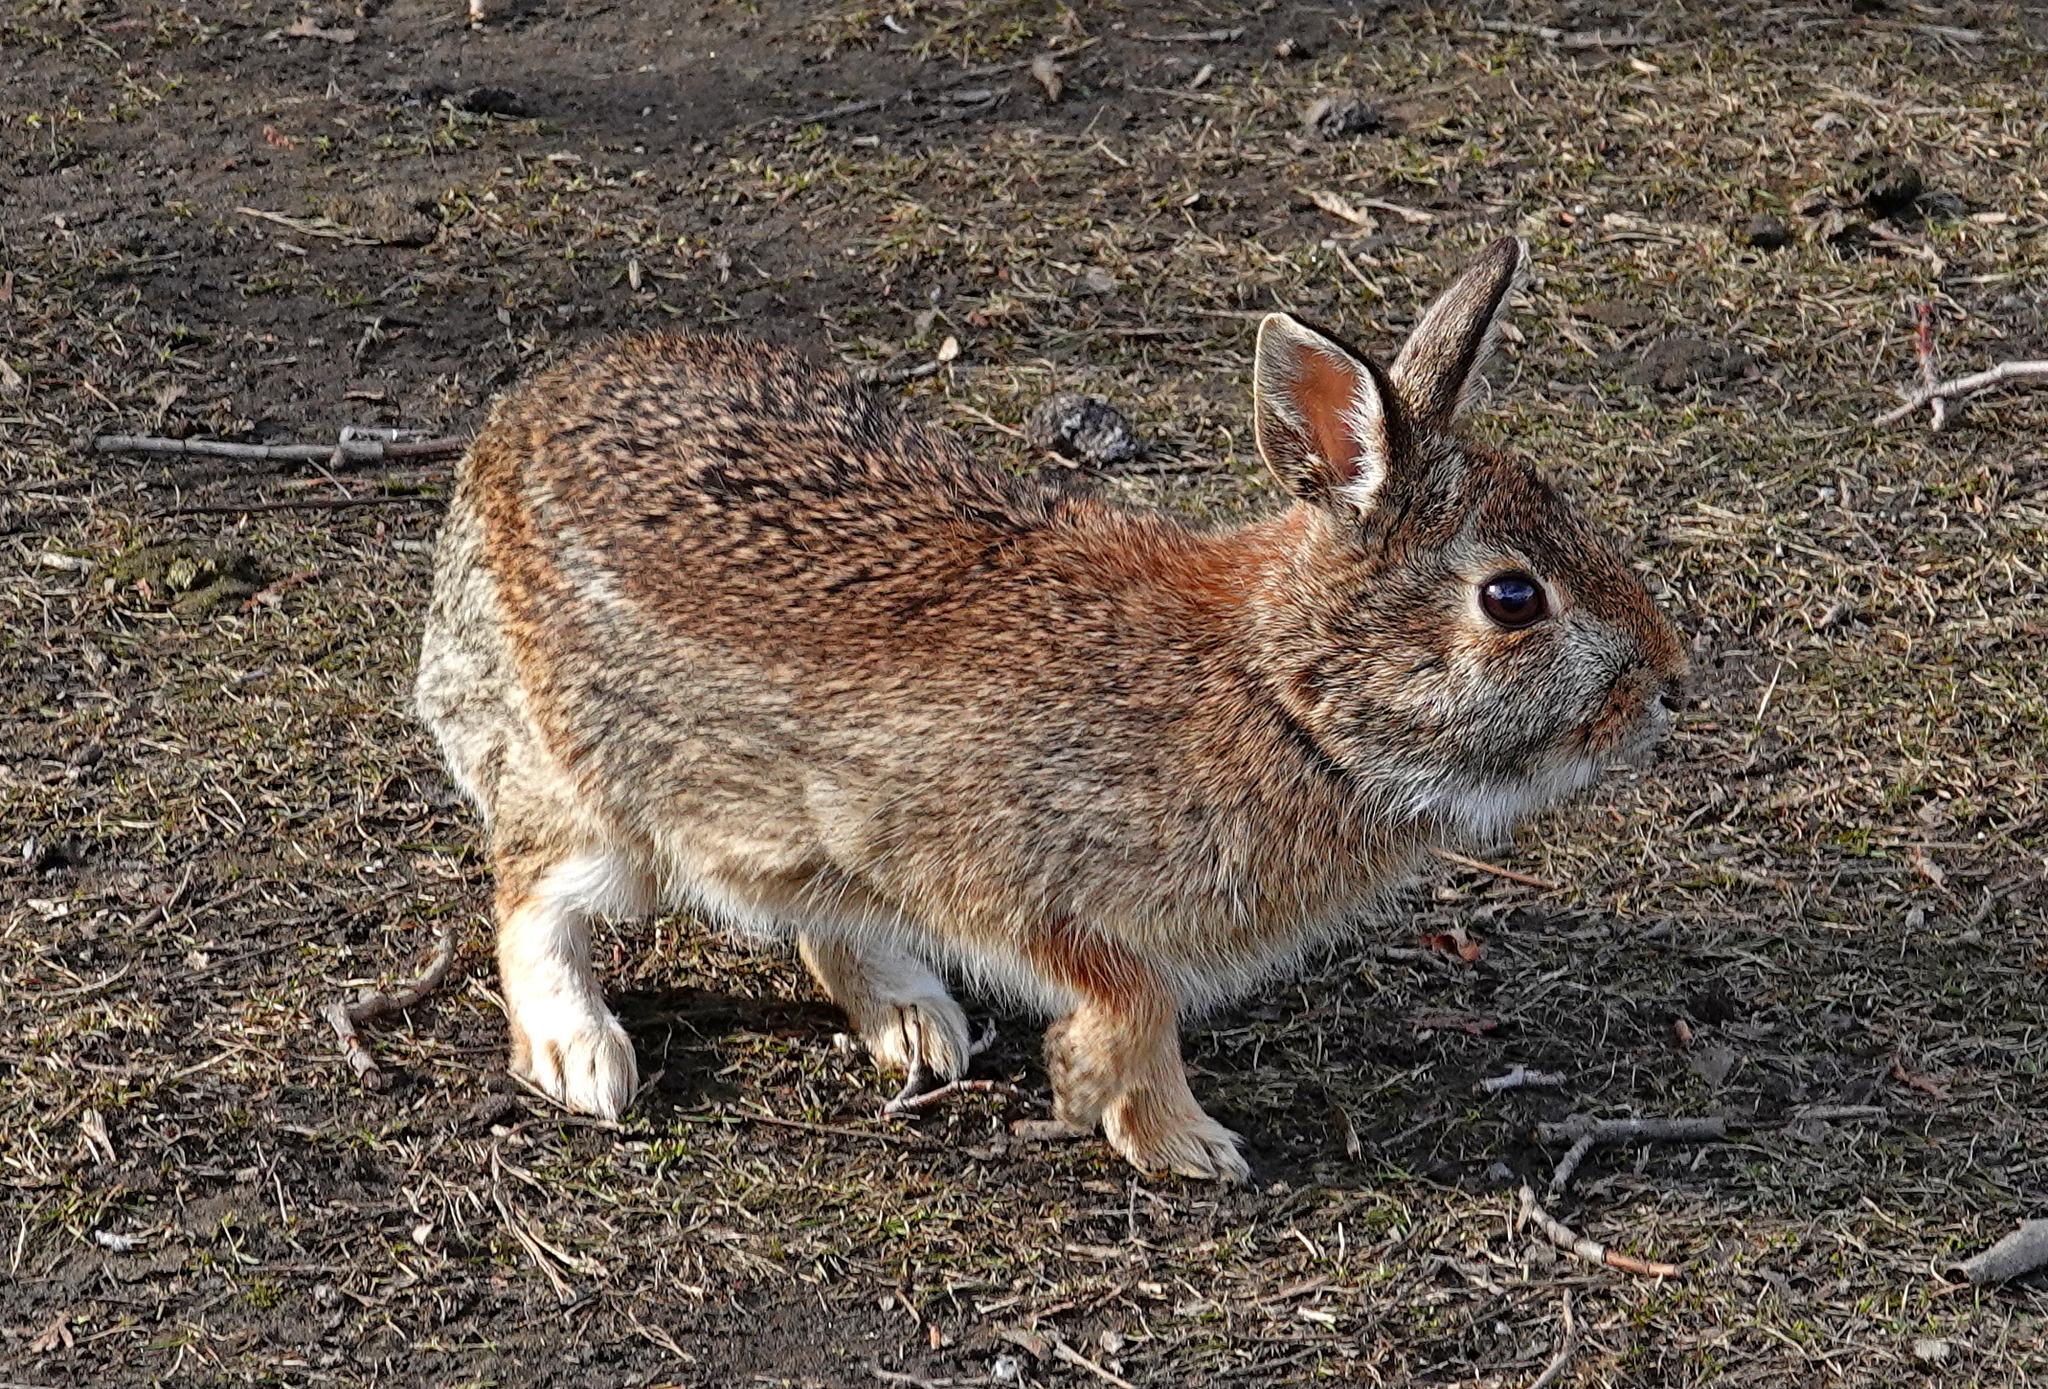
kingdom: Animalia
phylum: Chordata
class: Mammalia
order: Lagomorpha
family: Leporidae
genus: Sylvilagus
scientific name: Sylvilagus floridanus
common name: Eastern cottontail
